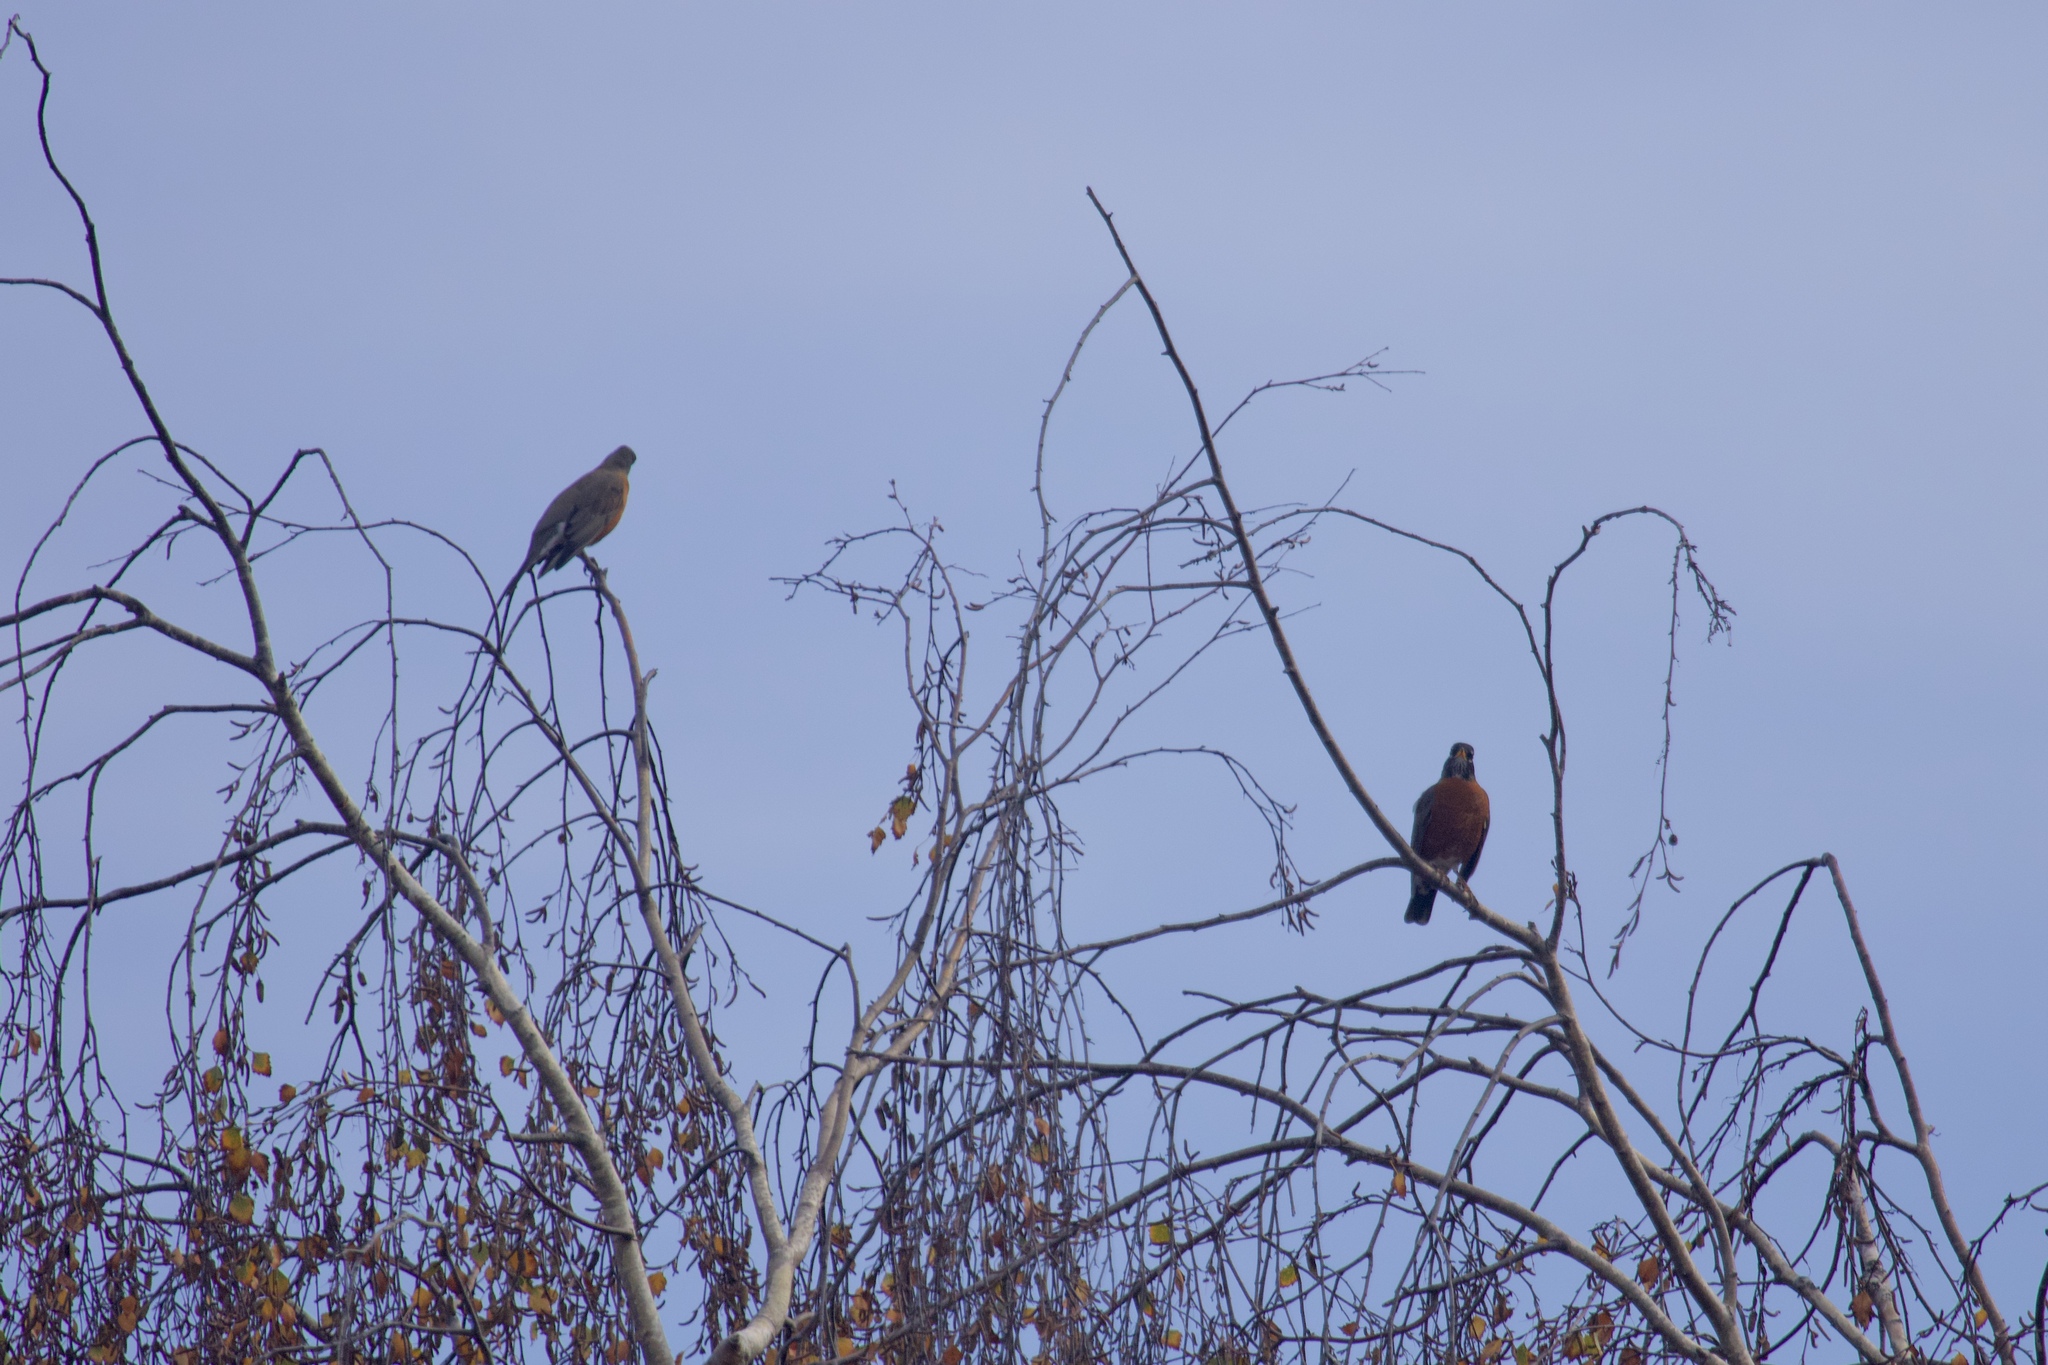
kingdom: Animalia
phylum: Chordata
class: Aves
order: Passeriformes
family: Turdidae
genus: Turdus
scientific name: Turdus migratorius
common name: American robin
